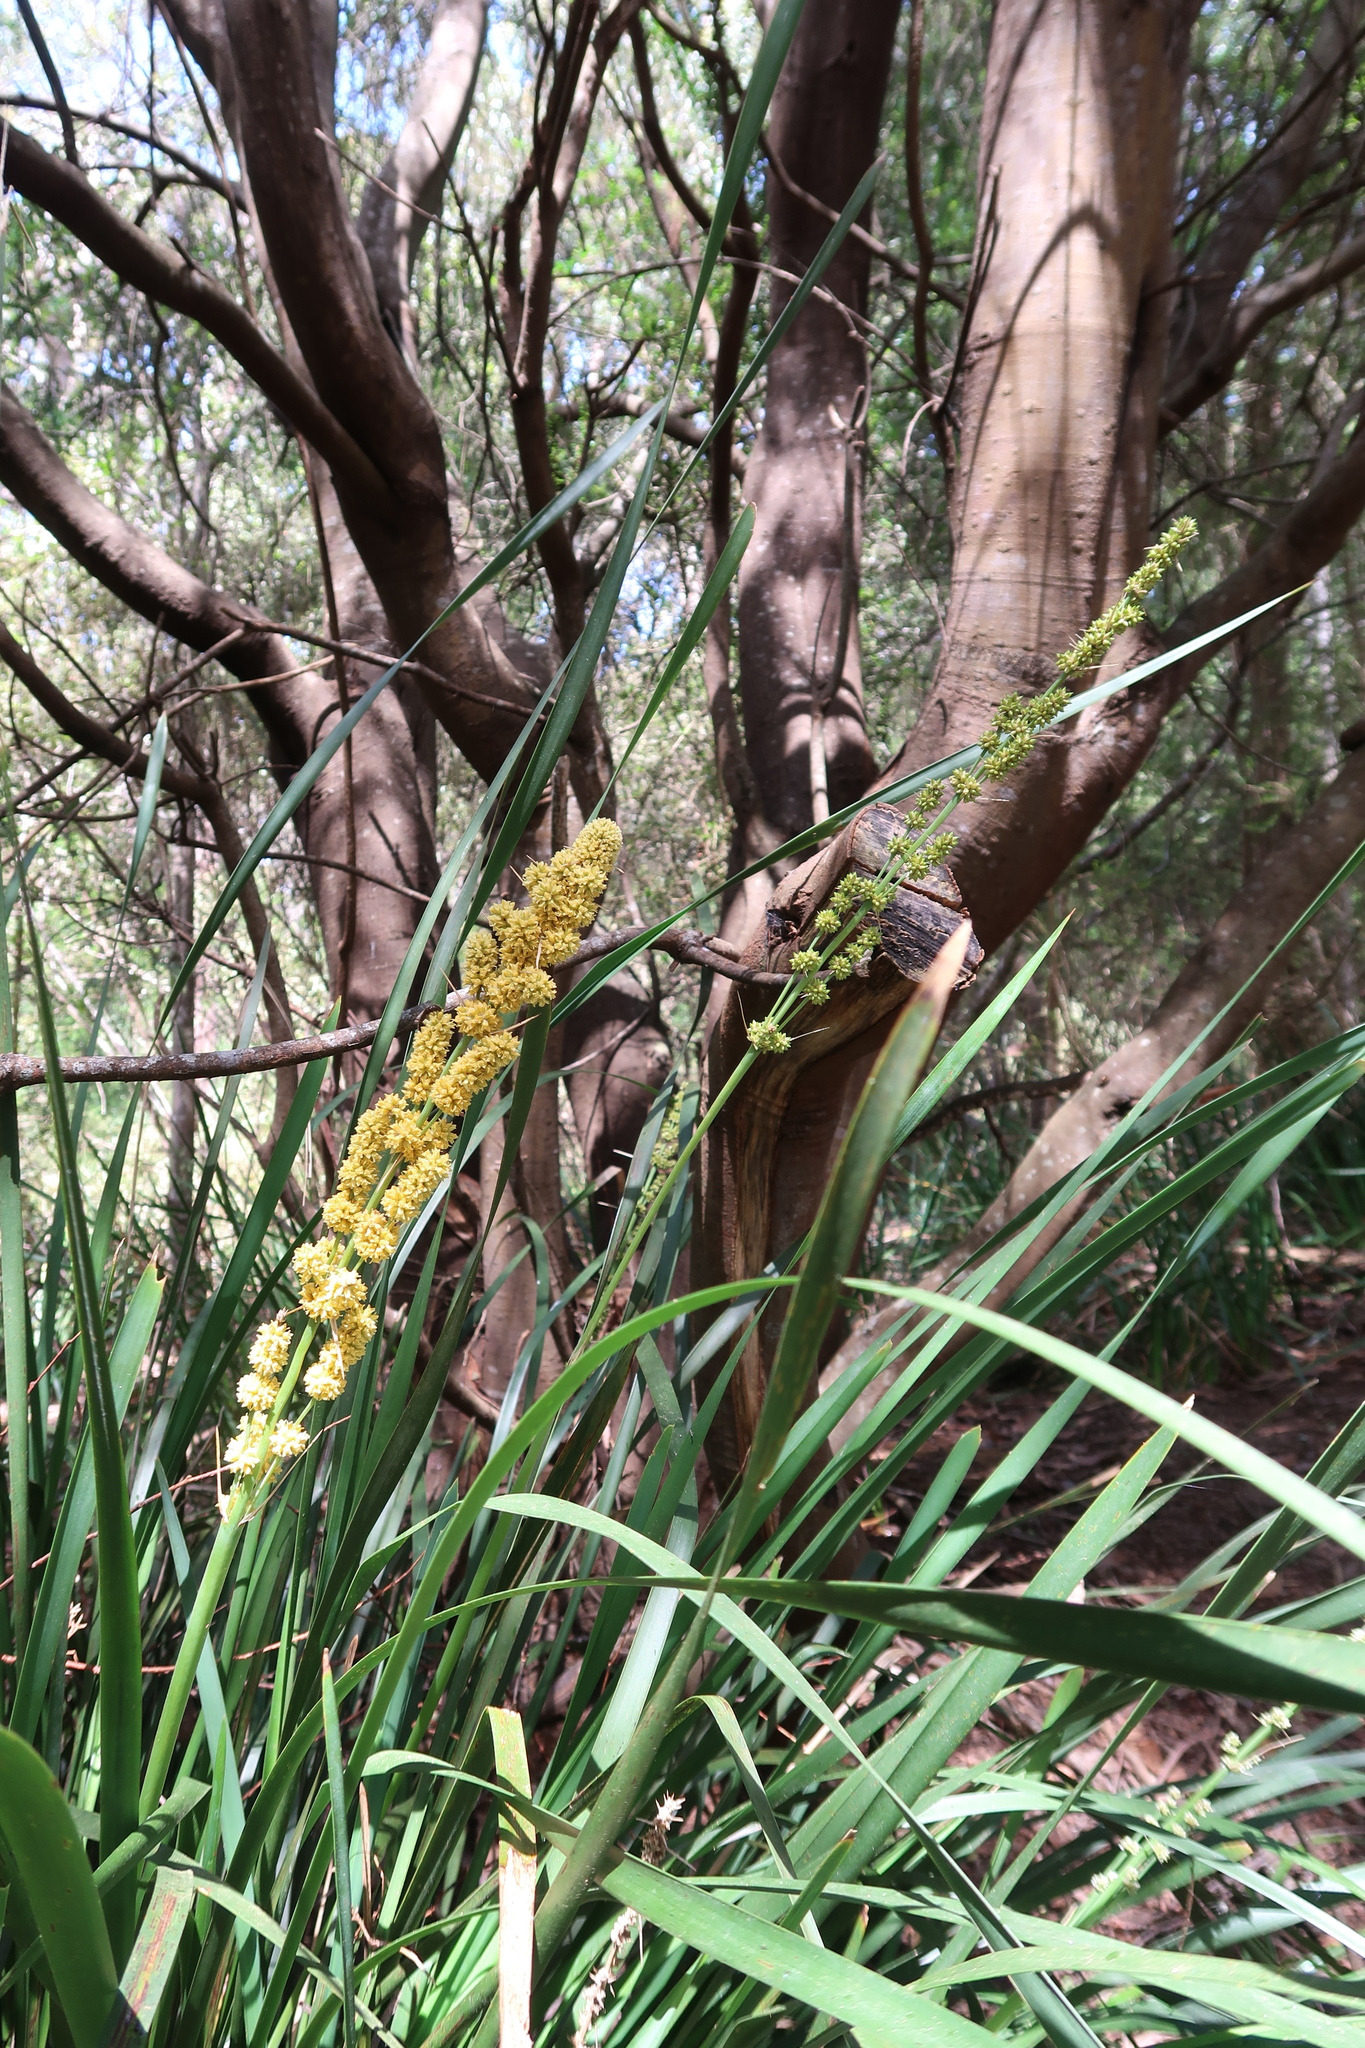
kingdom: Plantae
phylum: Tracheophyta
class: Liliopsida
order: Asparagales
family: Asparagaceae
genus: Lomandra
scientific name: Lomandra longifolia
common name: Longleaf mat-rush
